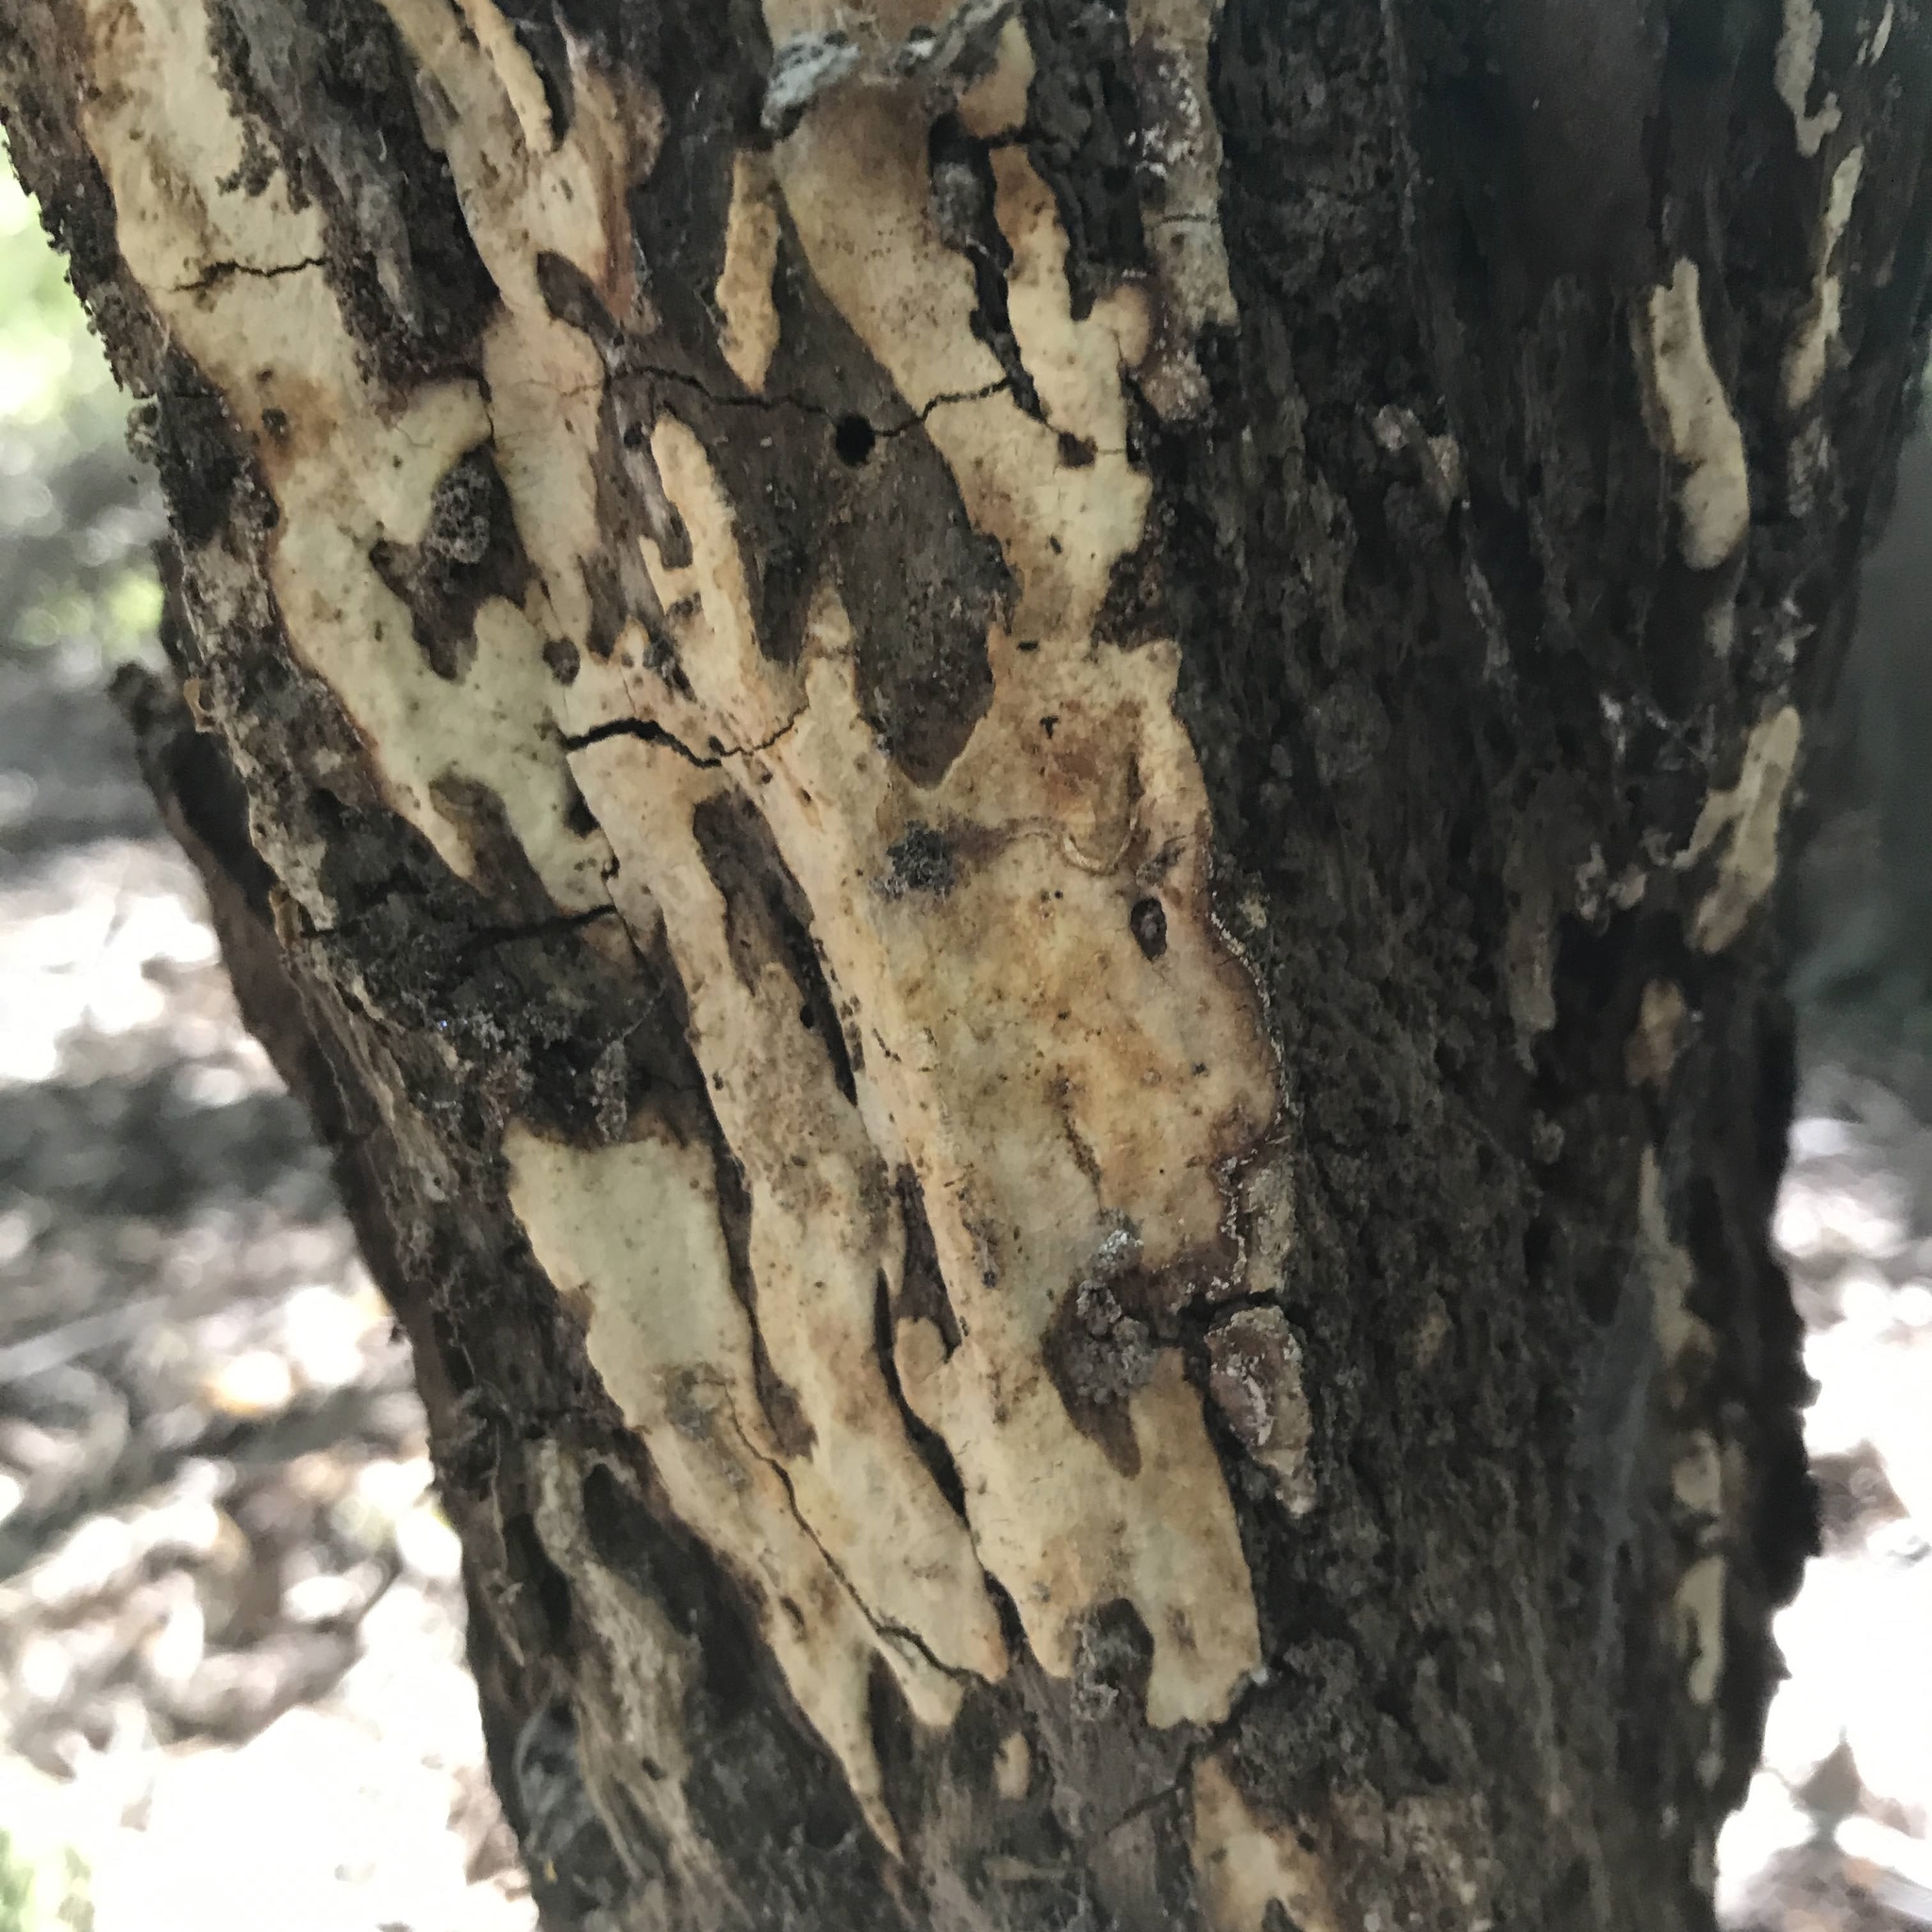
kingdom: Fungi
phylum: Basidiomycota
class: Agaricomycetes
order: Russulales
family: Stereaceae
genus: Gloeocystidiellum
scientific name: Gloeocystidiellum rajchenbergii
